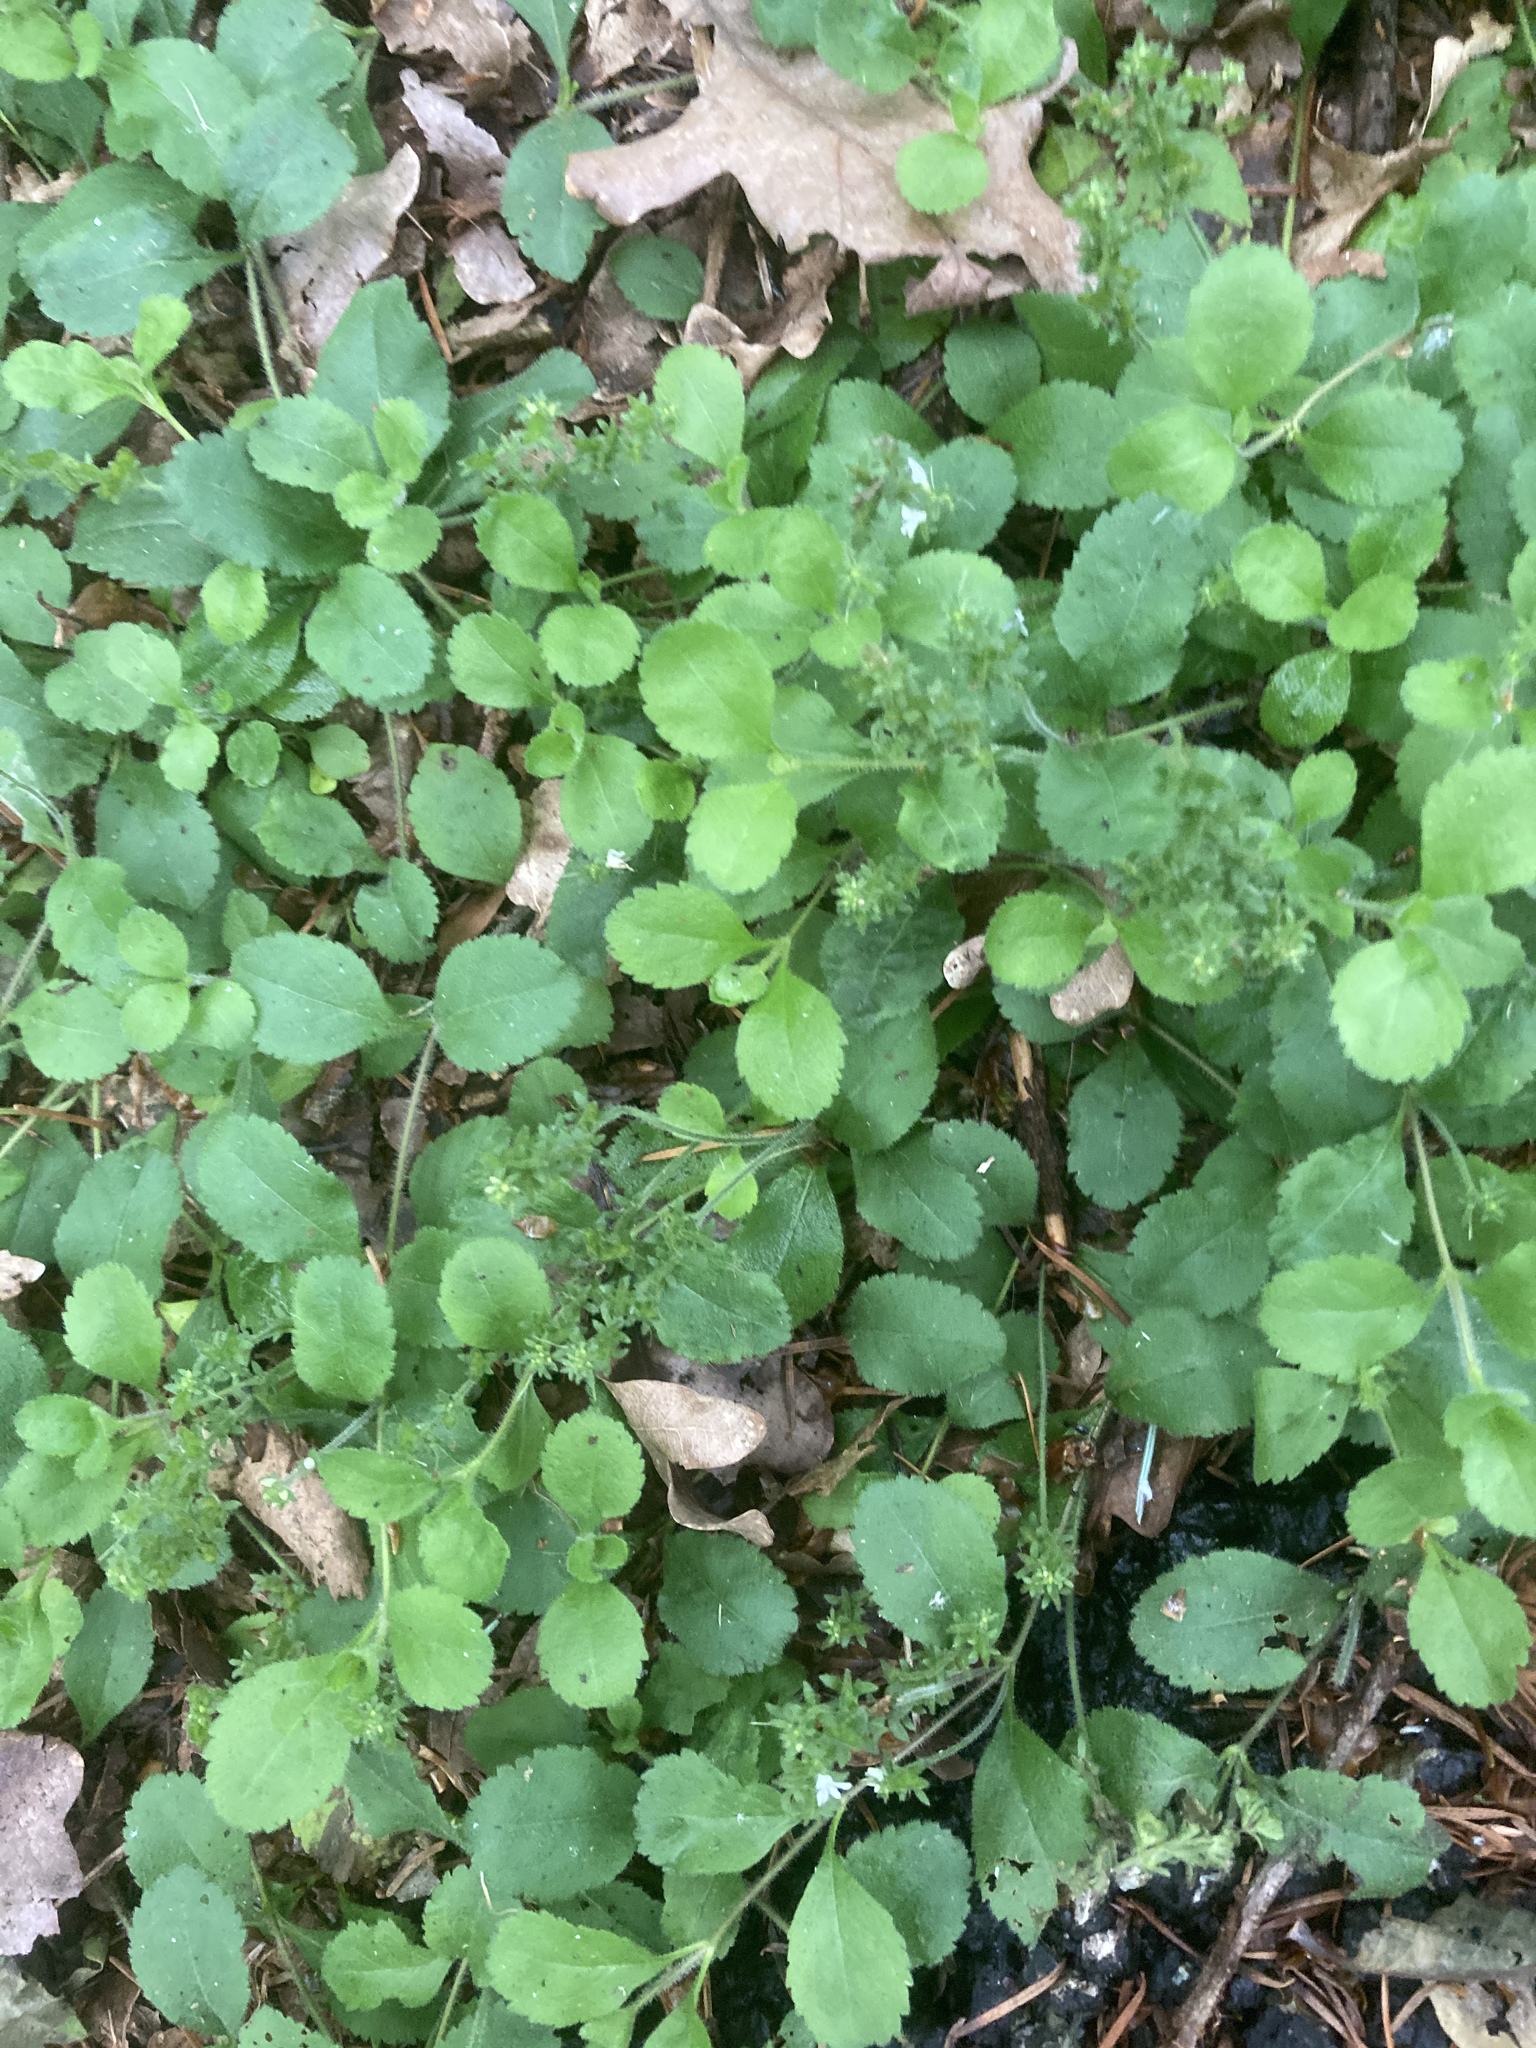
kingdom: Plantae
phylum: Tracheophyta
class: Magnoliopsida
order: Lamiales
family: Plantaginaceae
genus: Veronica
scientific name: Veronica officinalis
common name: Common speedwell
